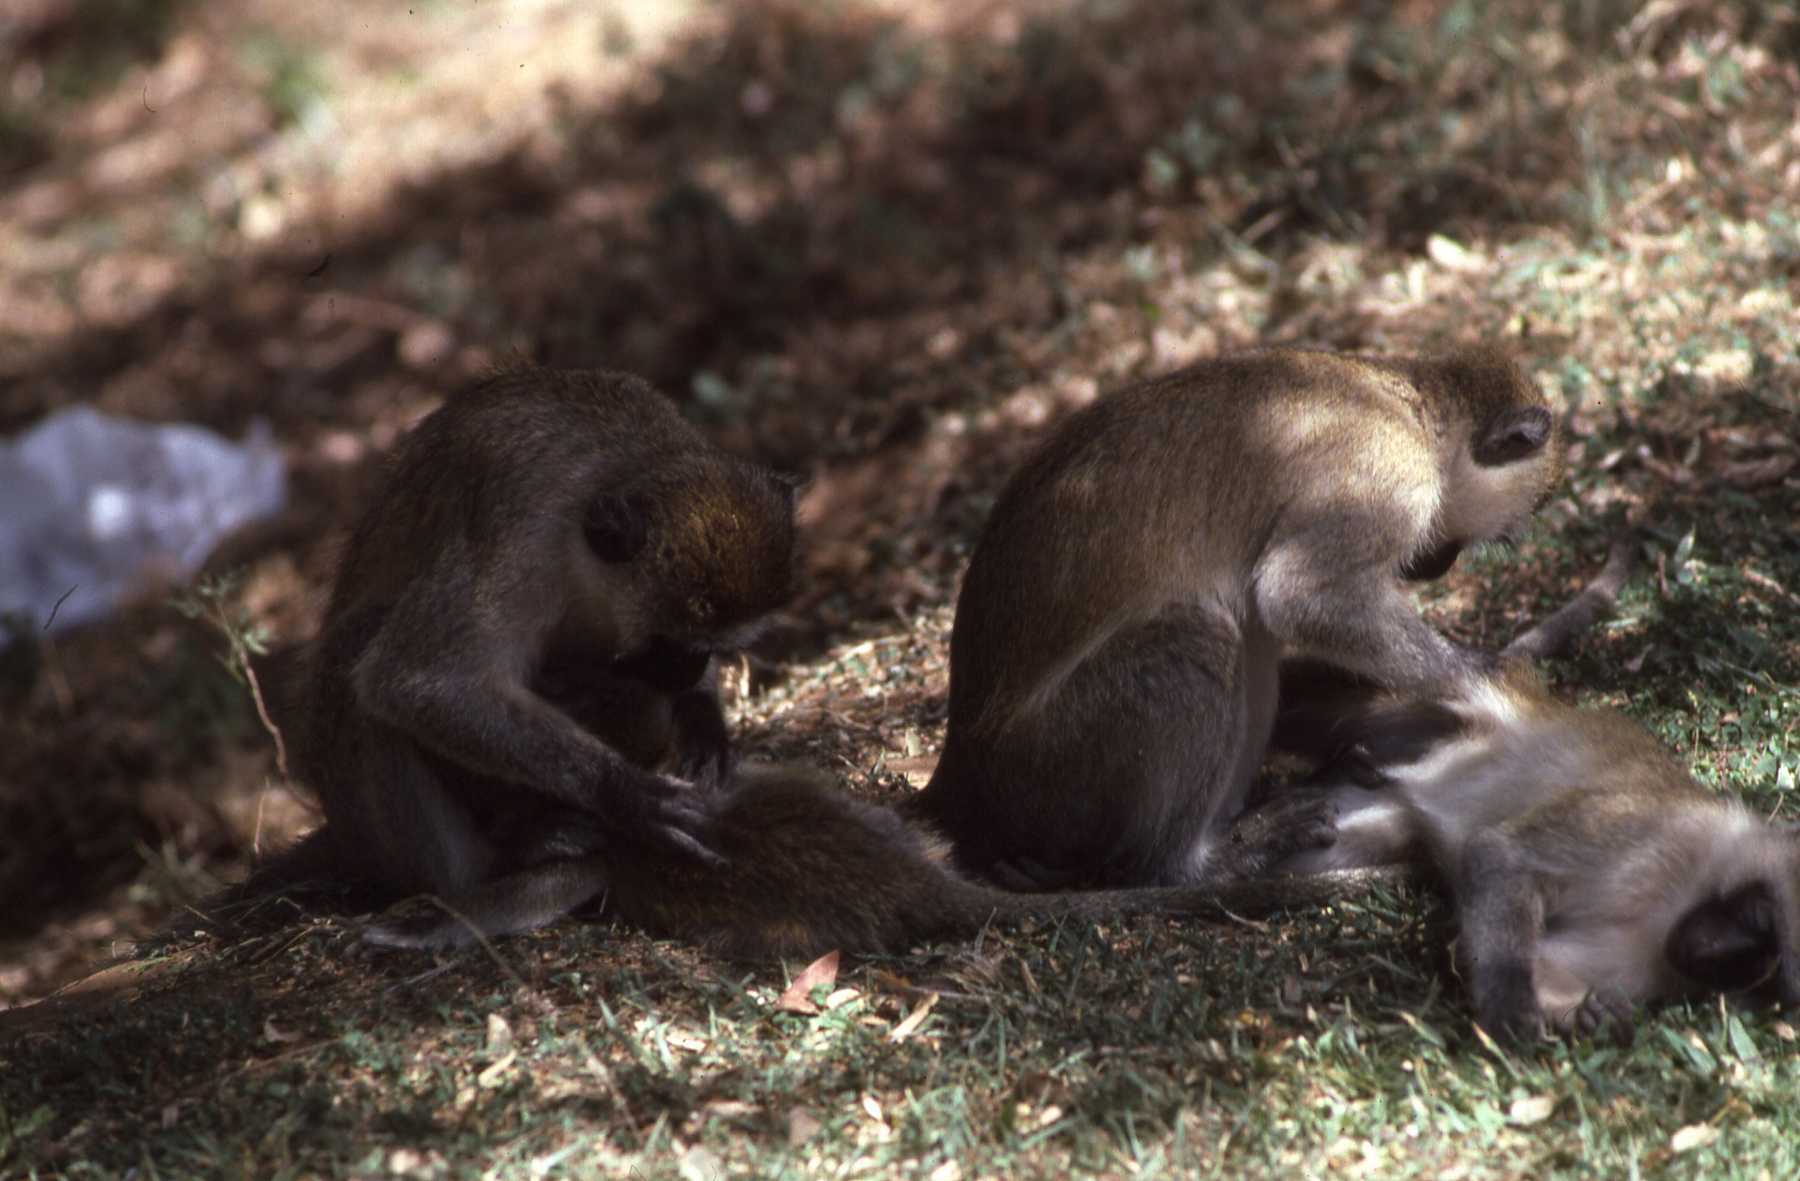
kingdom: Animalia
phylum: Chordata
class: Mammalia
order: Primates
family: Cercopithecidae
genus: Chlorocebus
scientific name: Chlorocebus pygerythrus
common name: Vervet monkey
